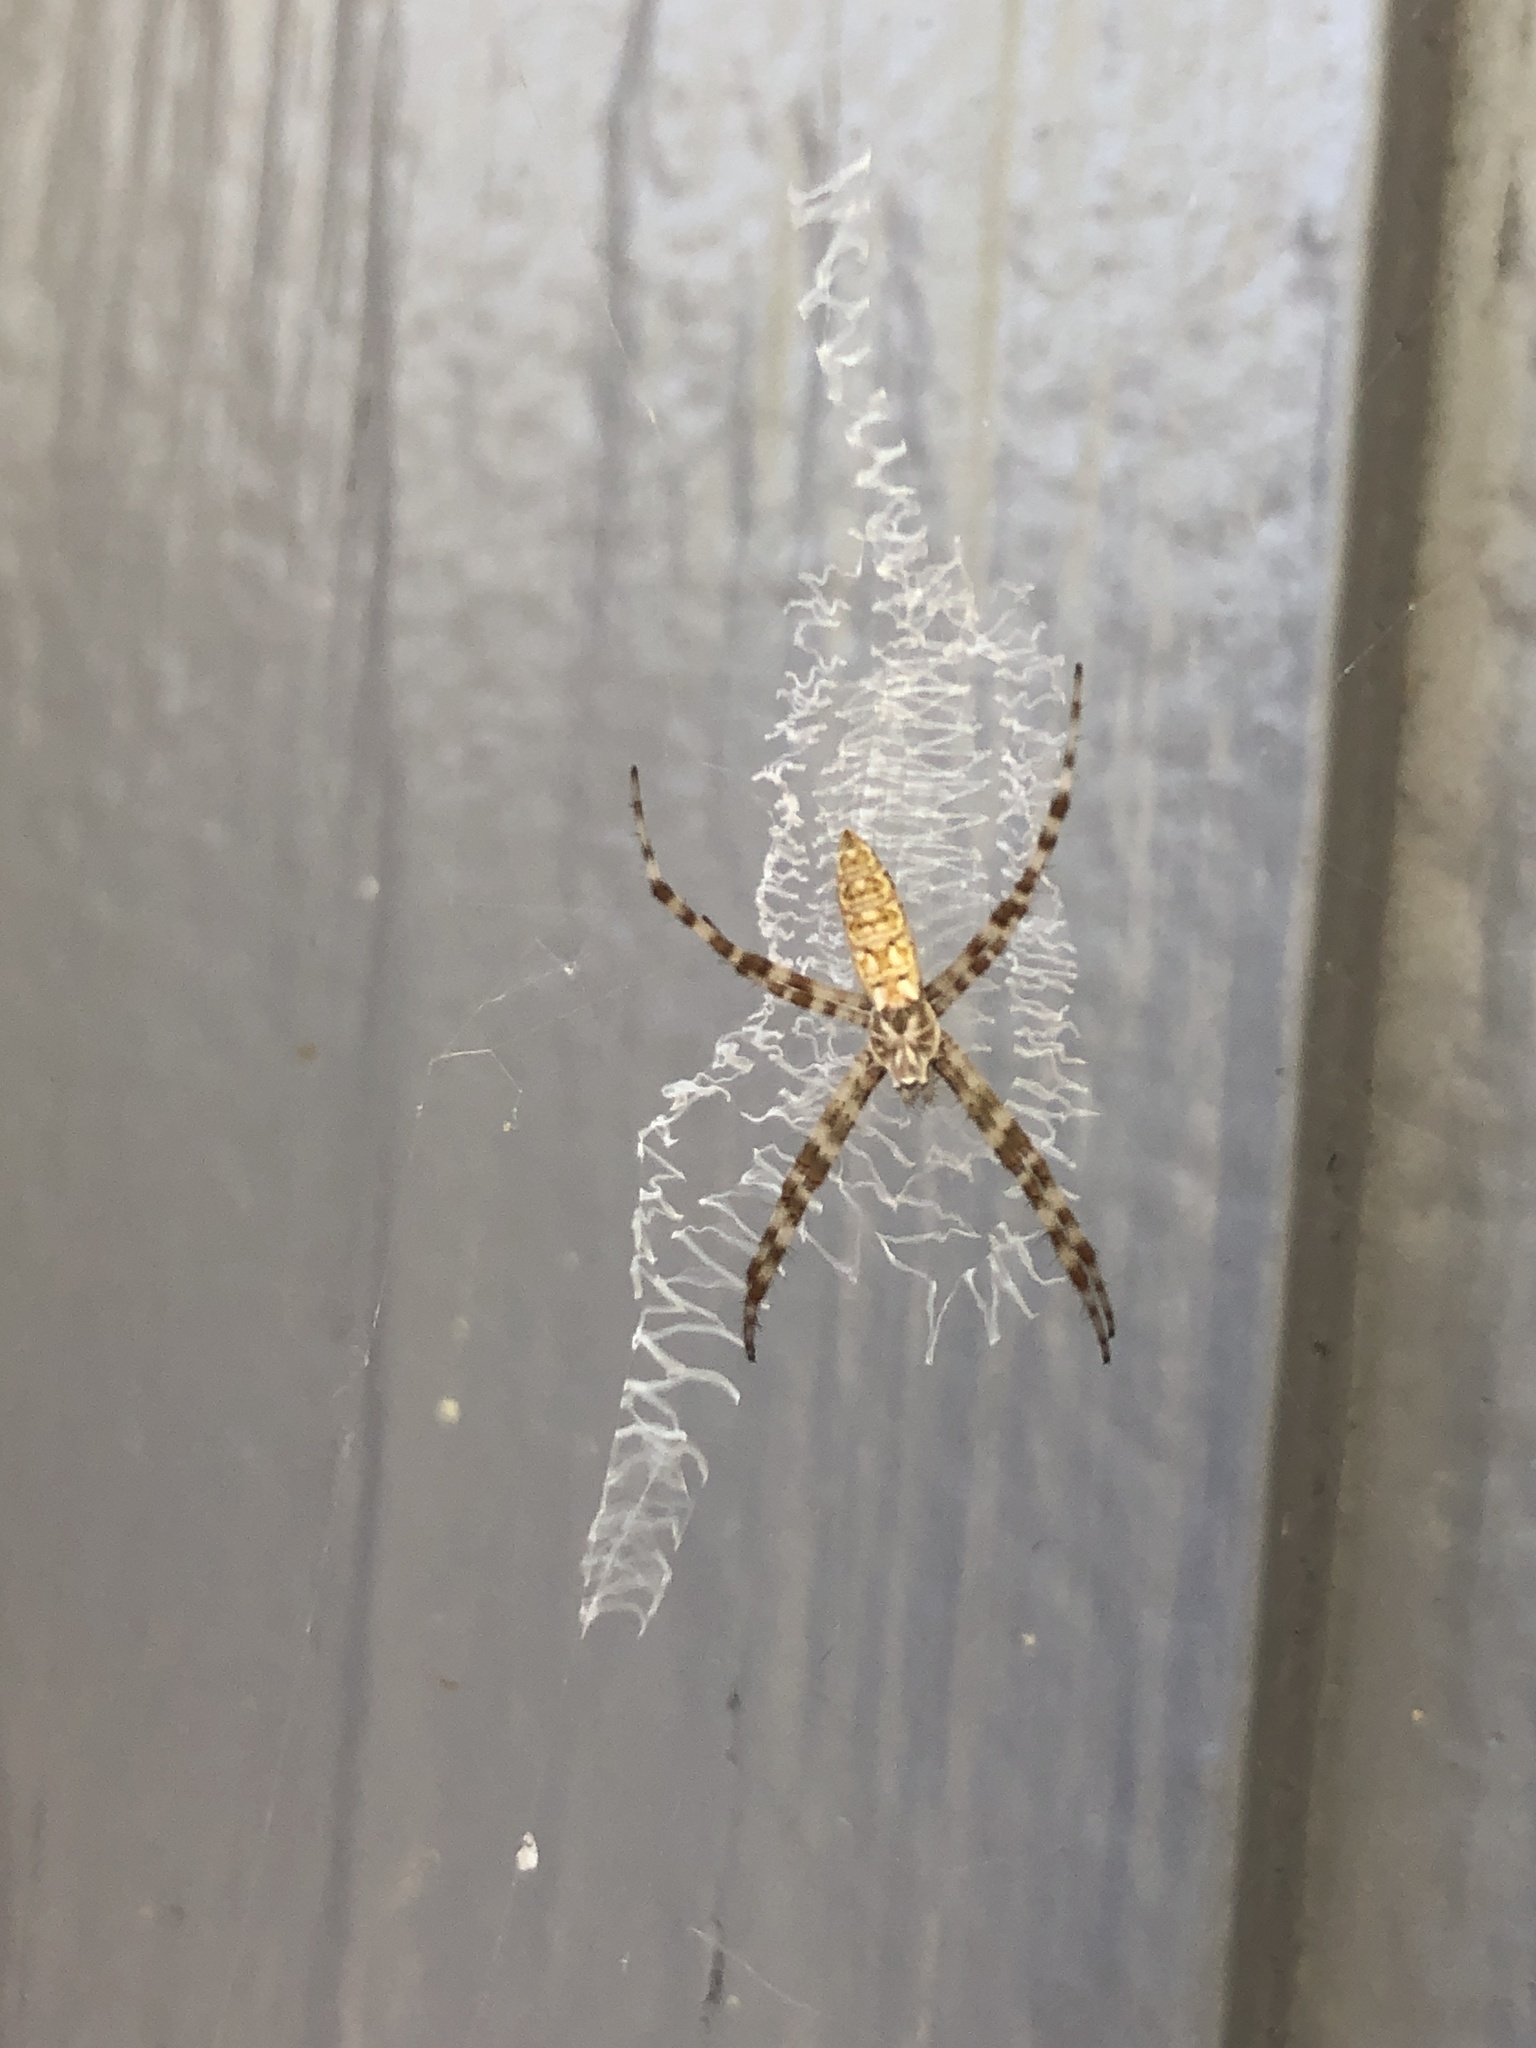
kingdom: Animalia
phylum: Arthropoda
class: Arachnida
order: Araneae
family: Araneidae
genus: Argiope
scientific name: Argiope aurantia
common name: Orb weavers
